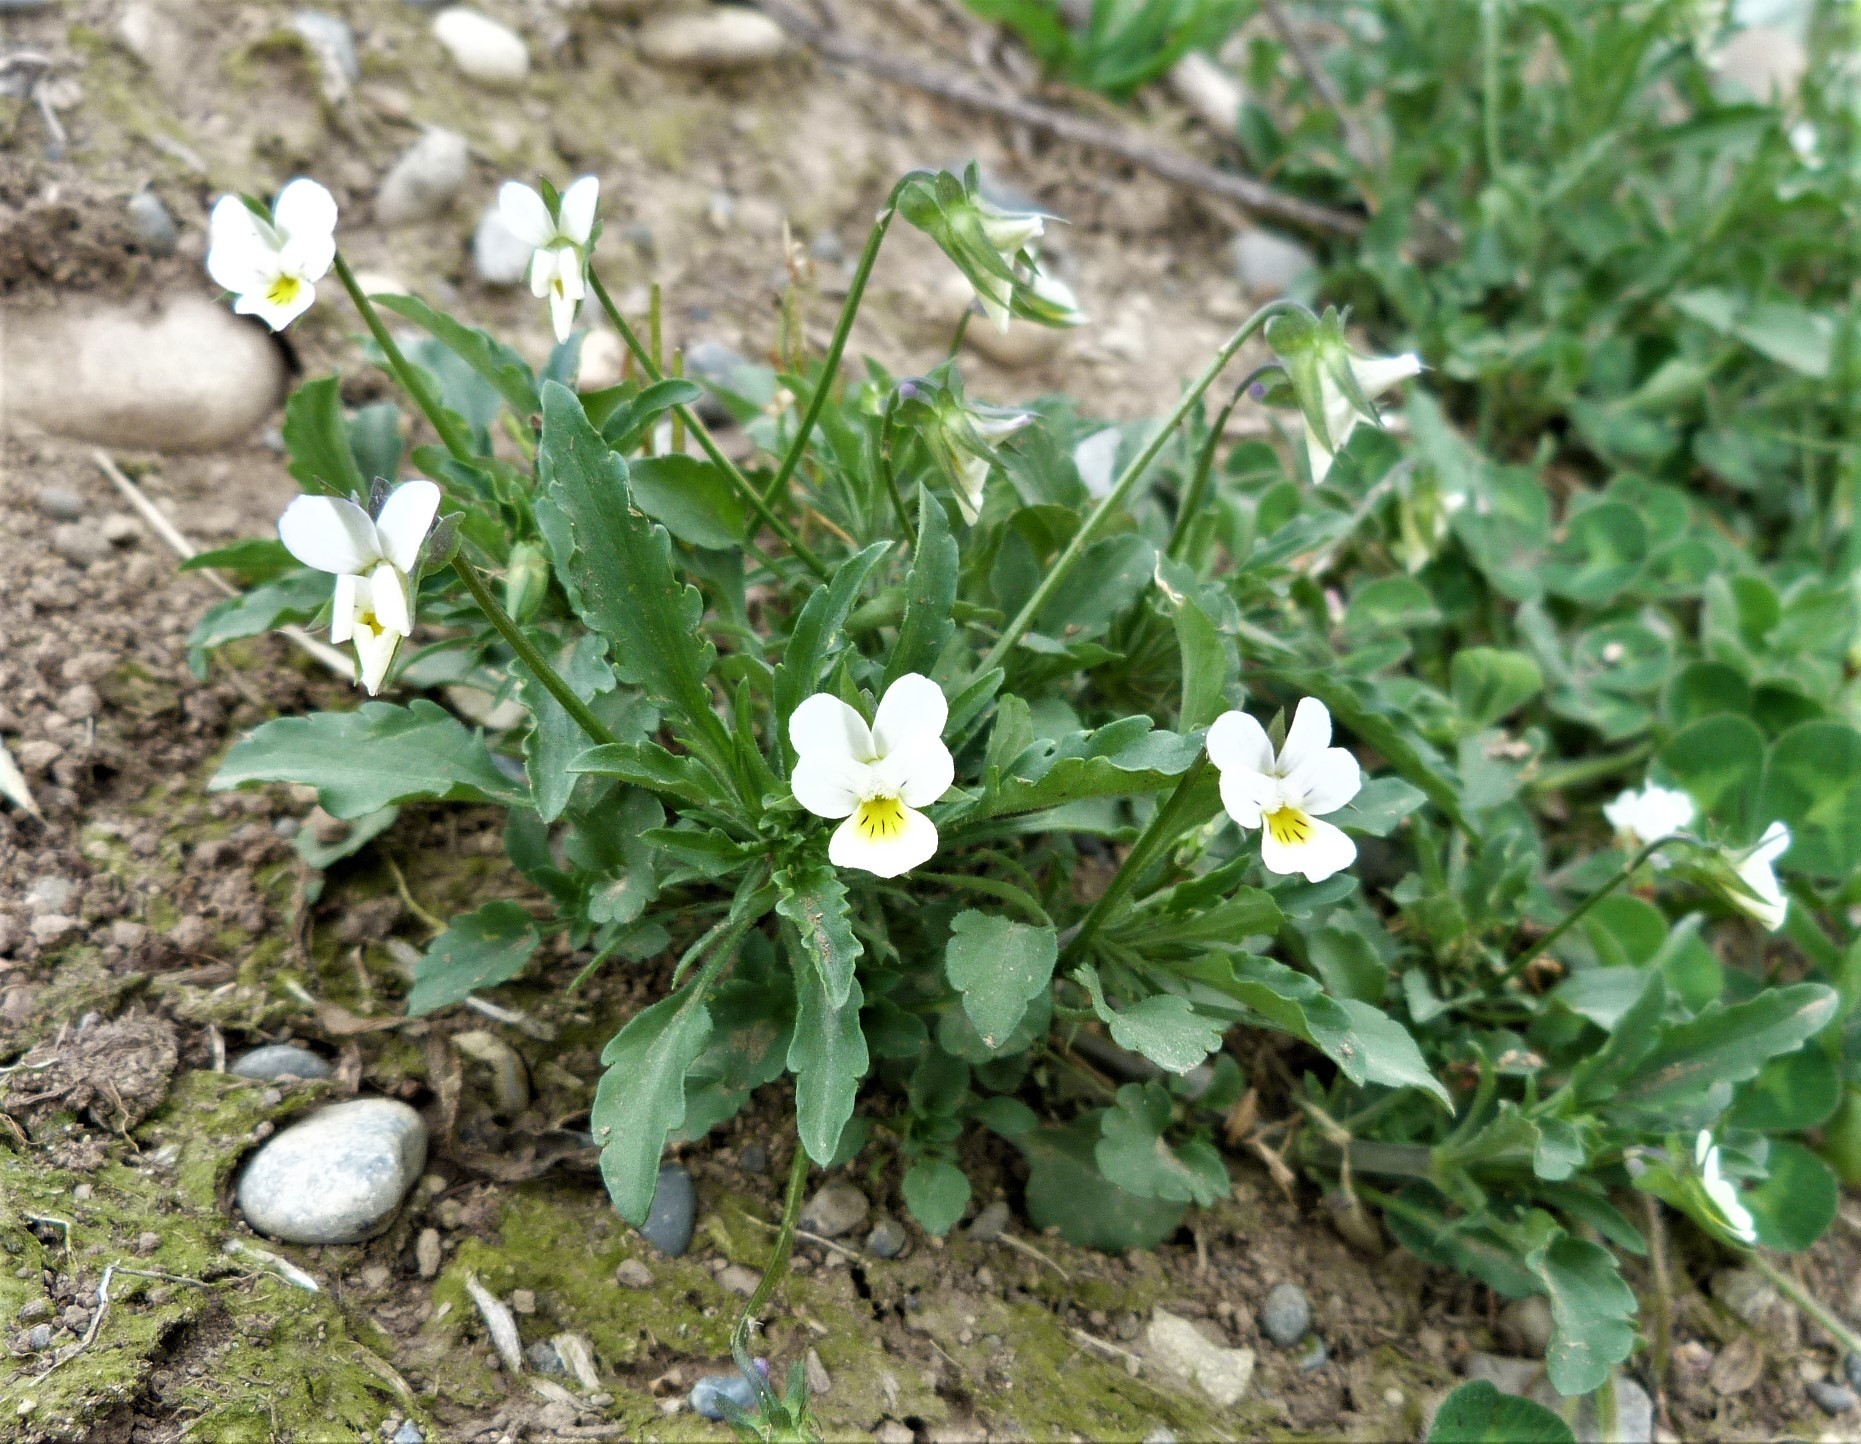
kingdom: Plantae
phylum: Tracheophyta
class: Magnoliopsida
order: Malpighiales
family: Violaceae
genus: Viola
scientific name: Viola arvensis
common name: Field pansy
